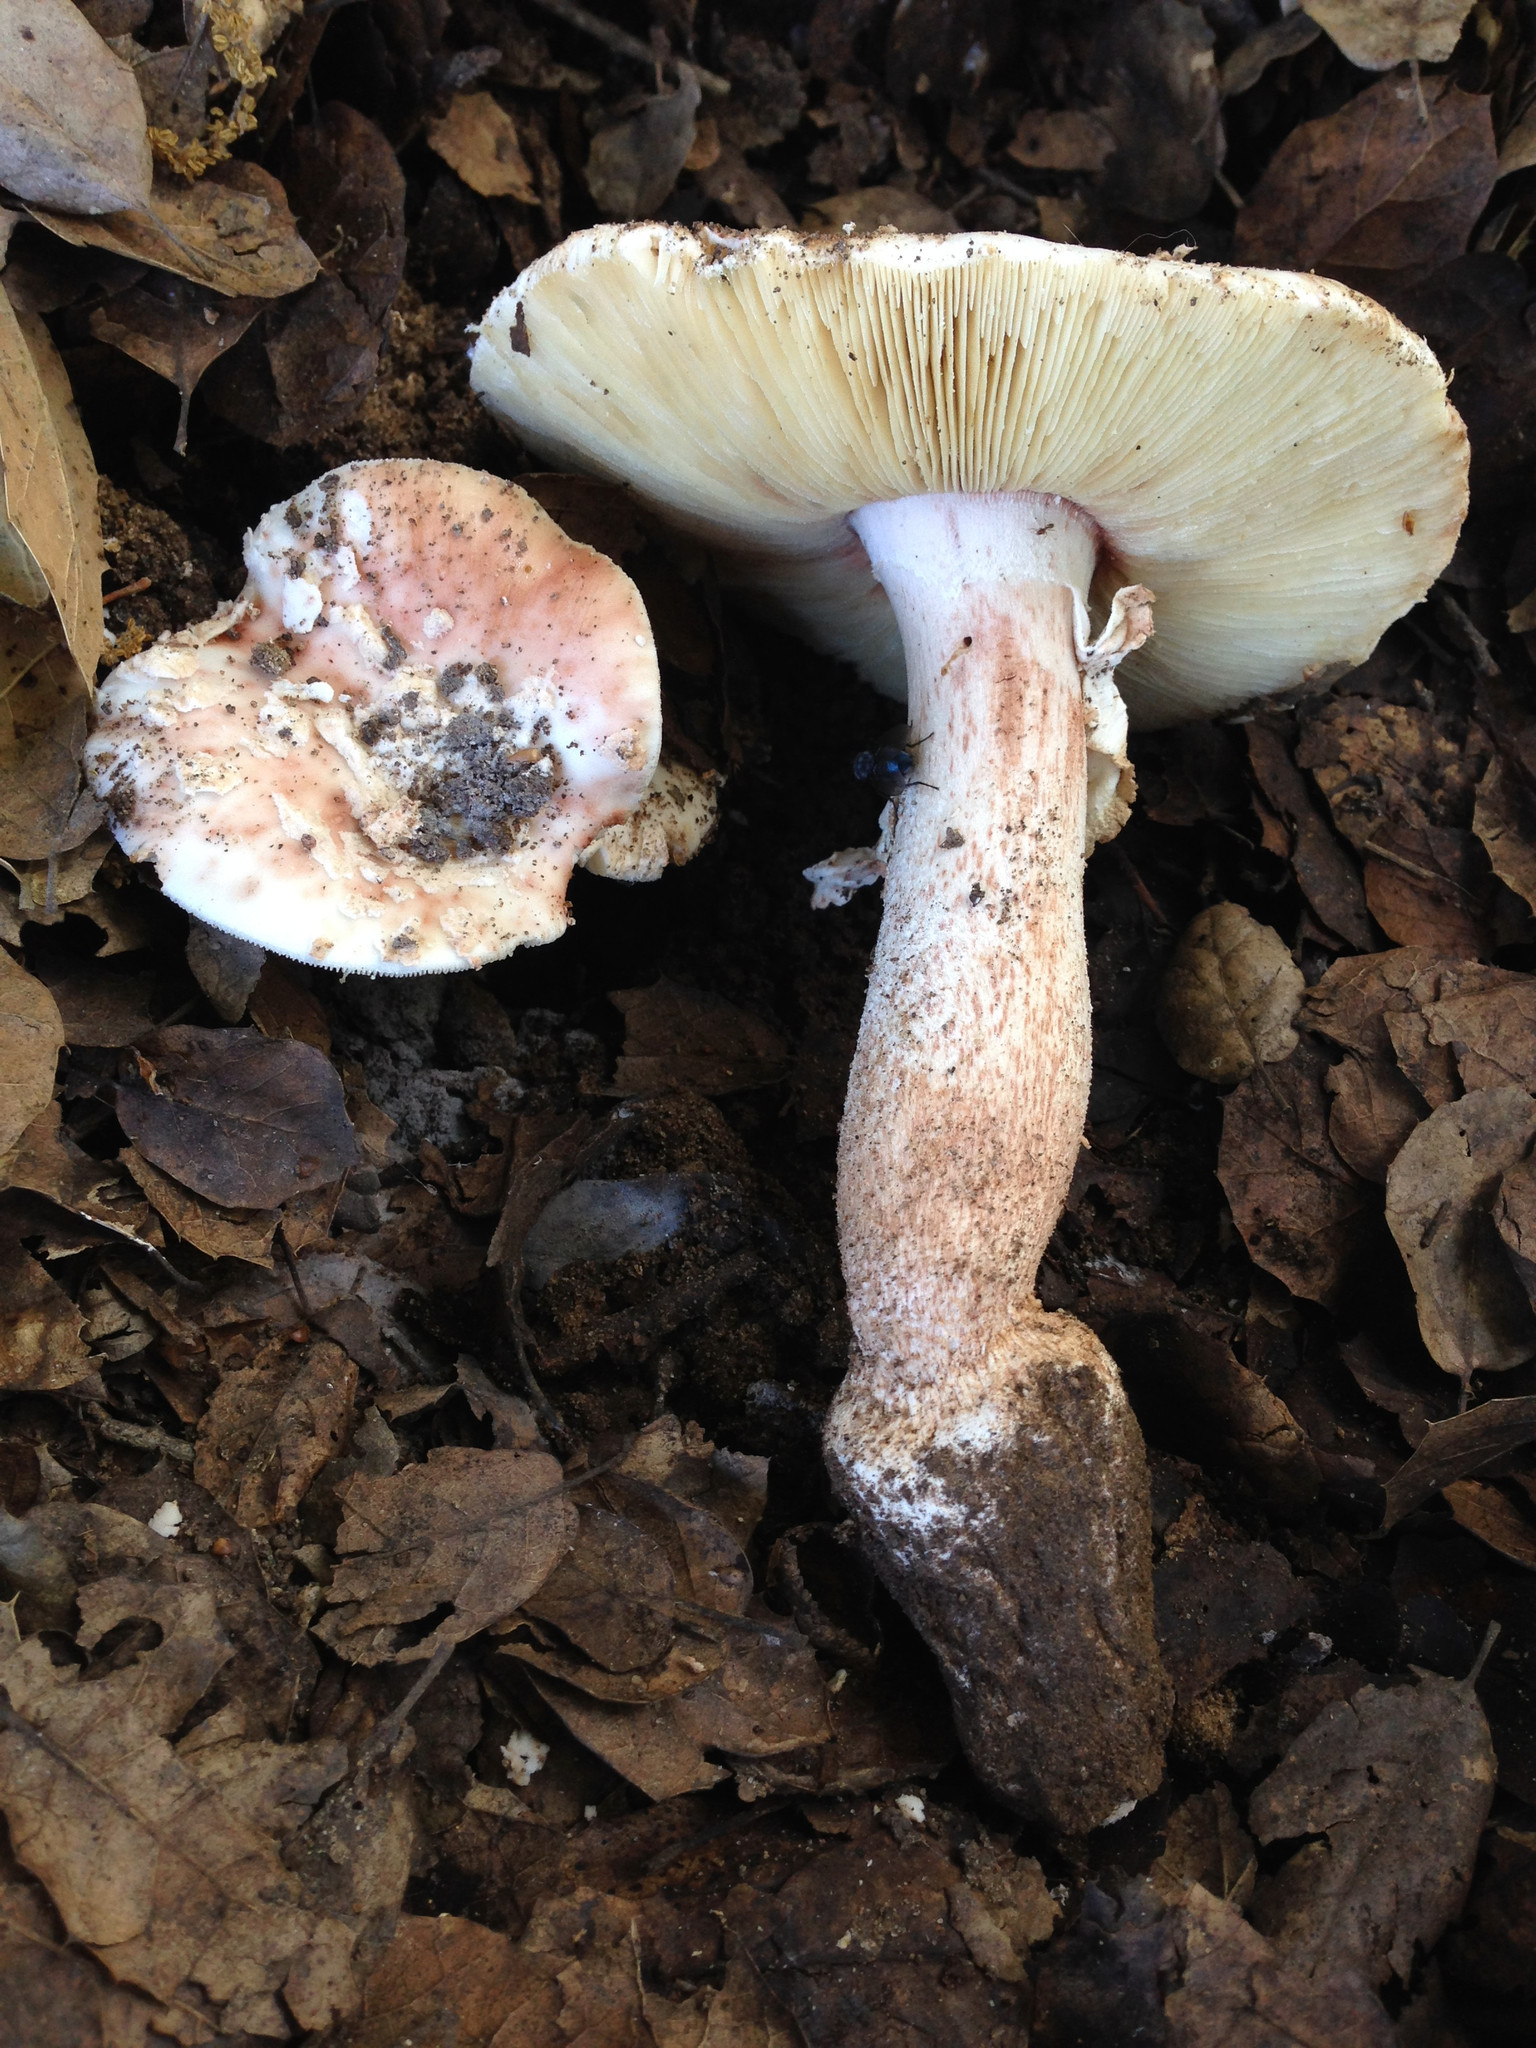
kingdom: Fungi
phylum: Basidiomycota
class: Agaricomycetes
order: Agaricales
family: Amanitaceae
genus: Amanita
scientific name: Amanita novinupta
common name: Blushing bride
